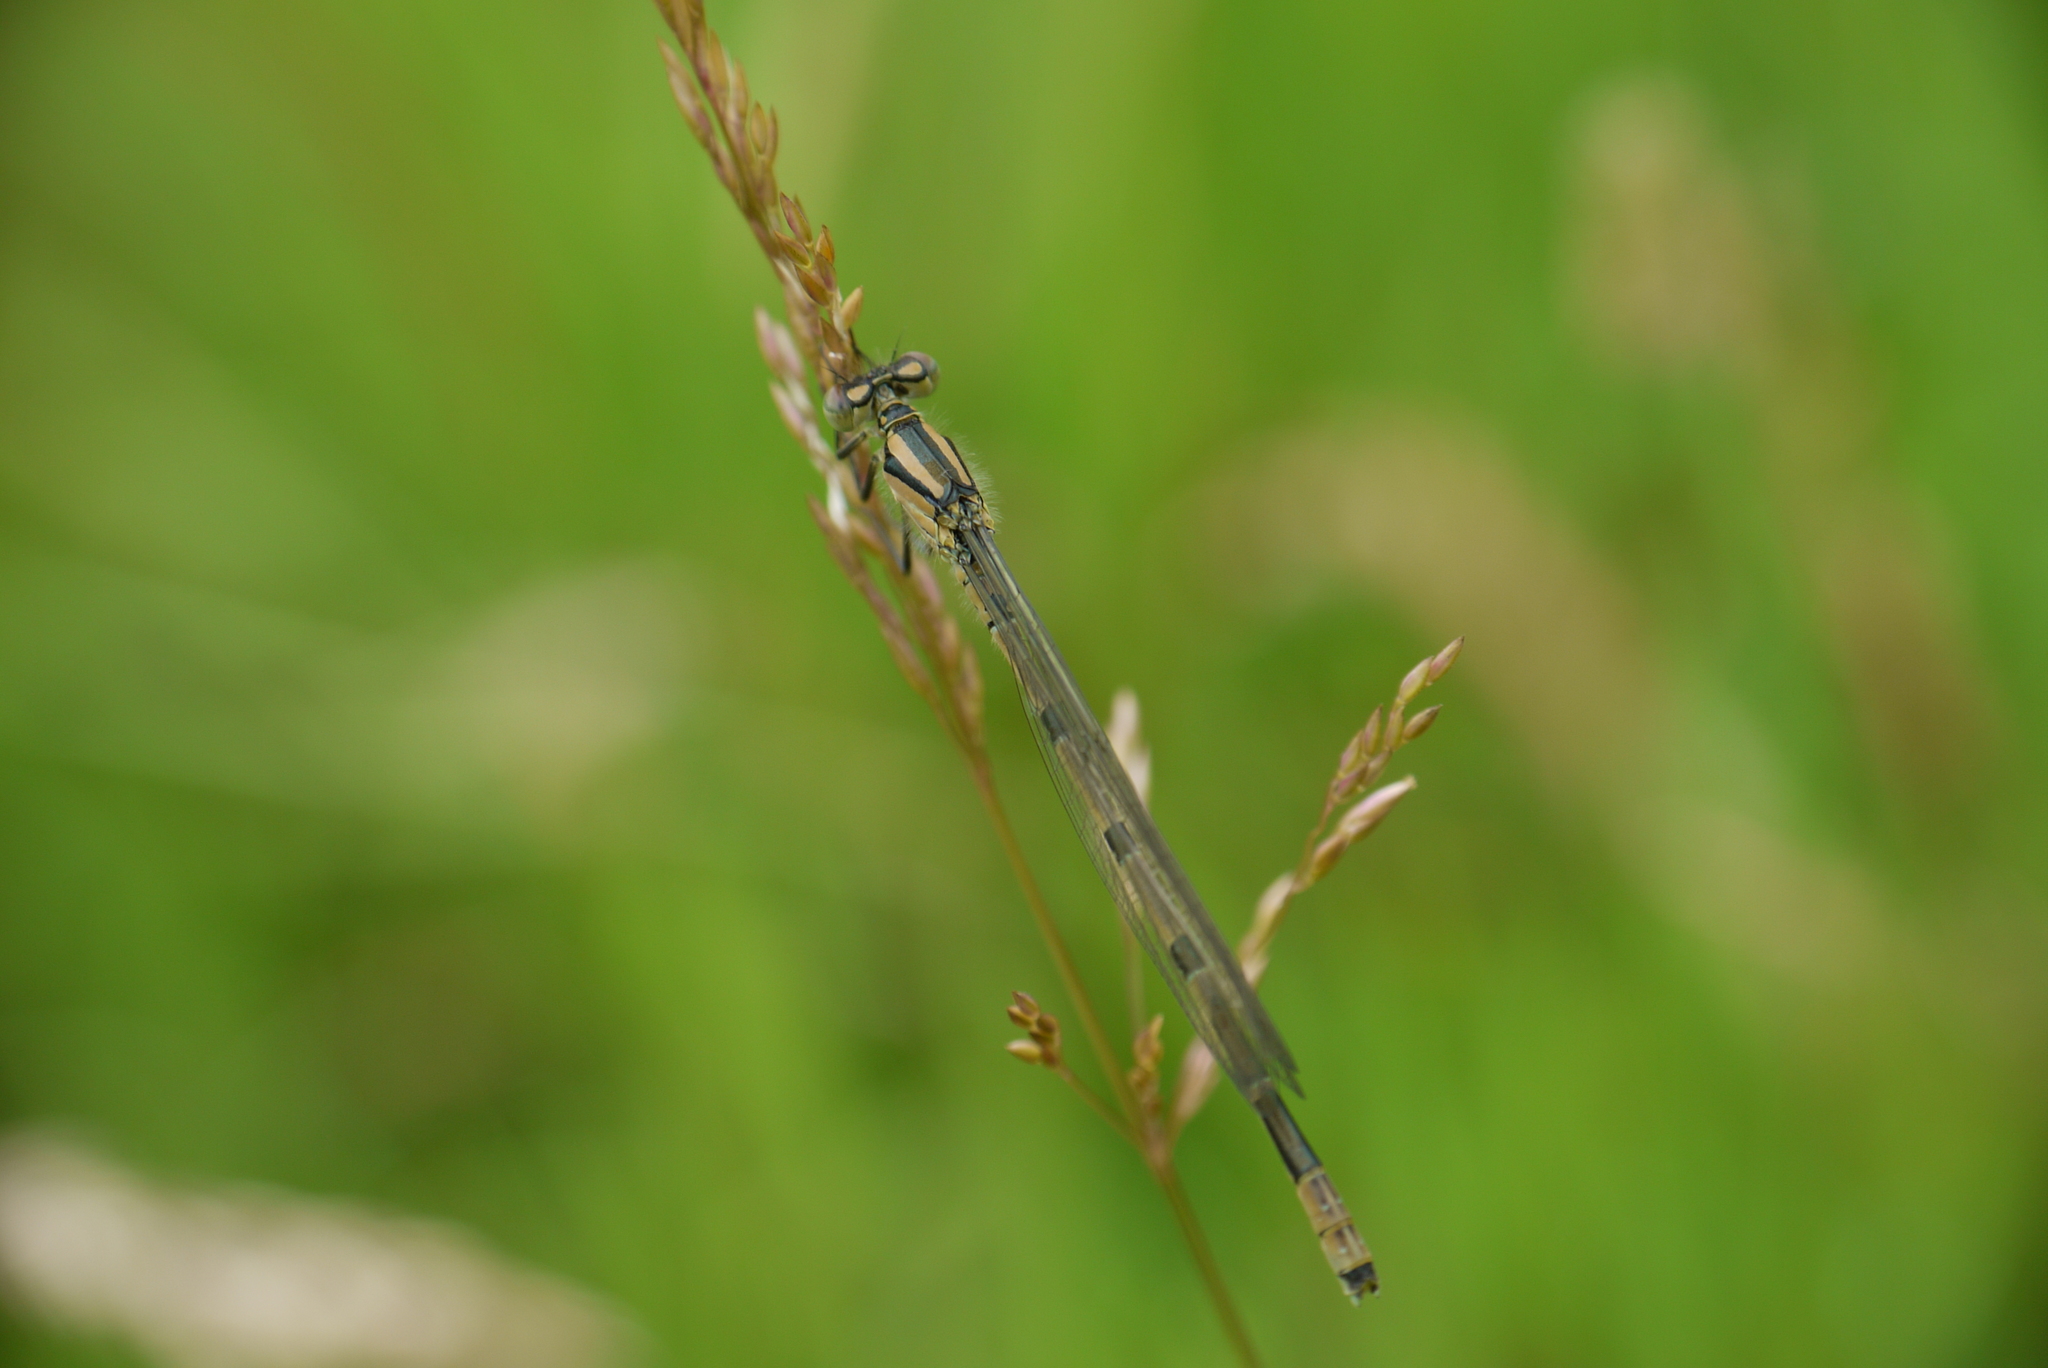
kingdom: Animalia
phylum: Arthropoda
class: Insecta
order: Odonata
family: Coenagrionidae
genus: Enallagma
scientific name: Enallagma cyathigerum
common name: Common blue damselfly
